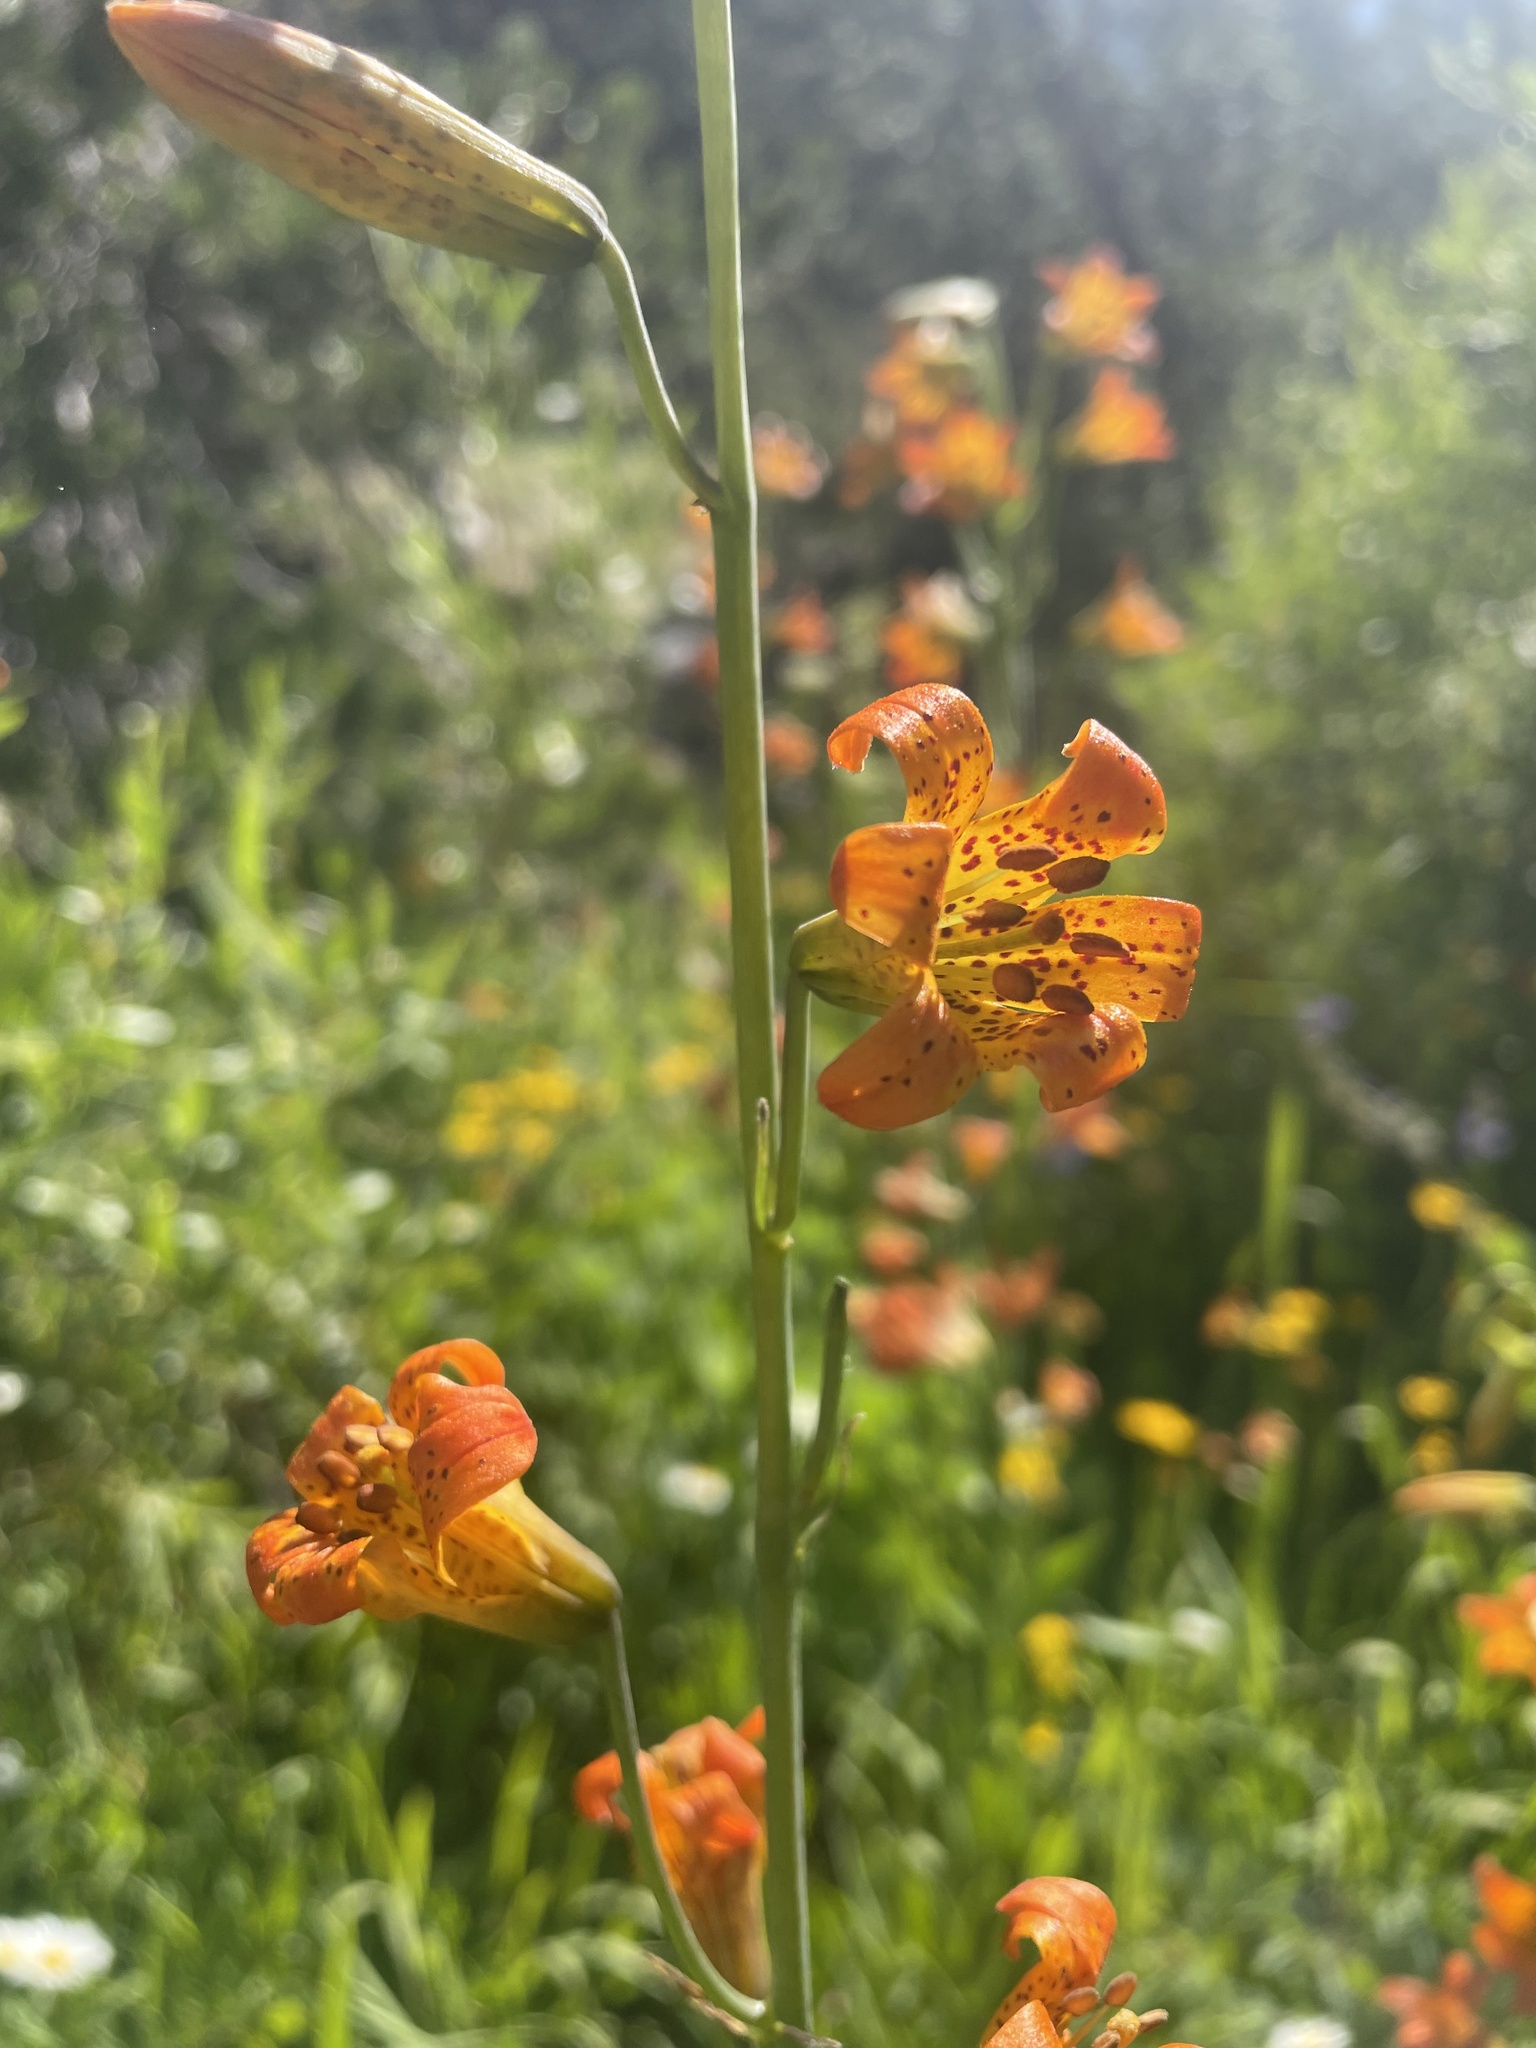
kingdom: Plantae
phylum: Tracheophyta
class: Liliopsida
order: Liliales
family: Liliaceae
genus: Lilium
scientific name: Lilium parvum
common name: Alpine lily
